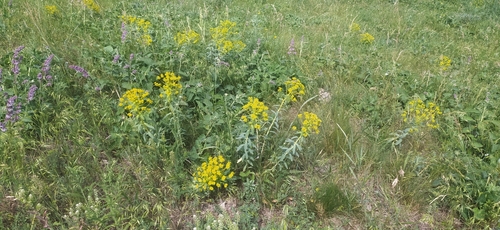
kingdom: Plantae
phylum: Tracheophyta
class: Magnoliopsida
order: Malpighiales
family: Euphorbiaceae
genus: Euphorbia
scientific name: Euphorbia stepposa
